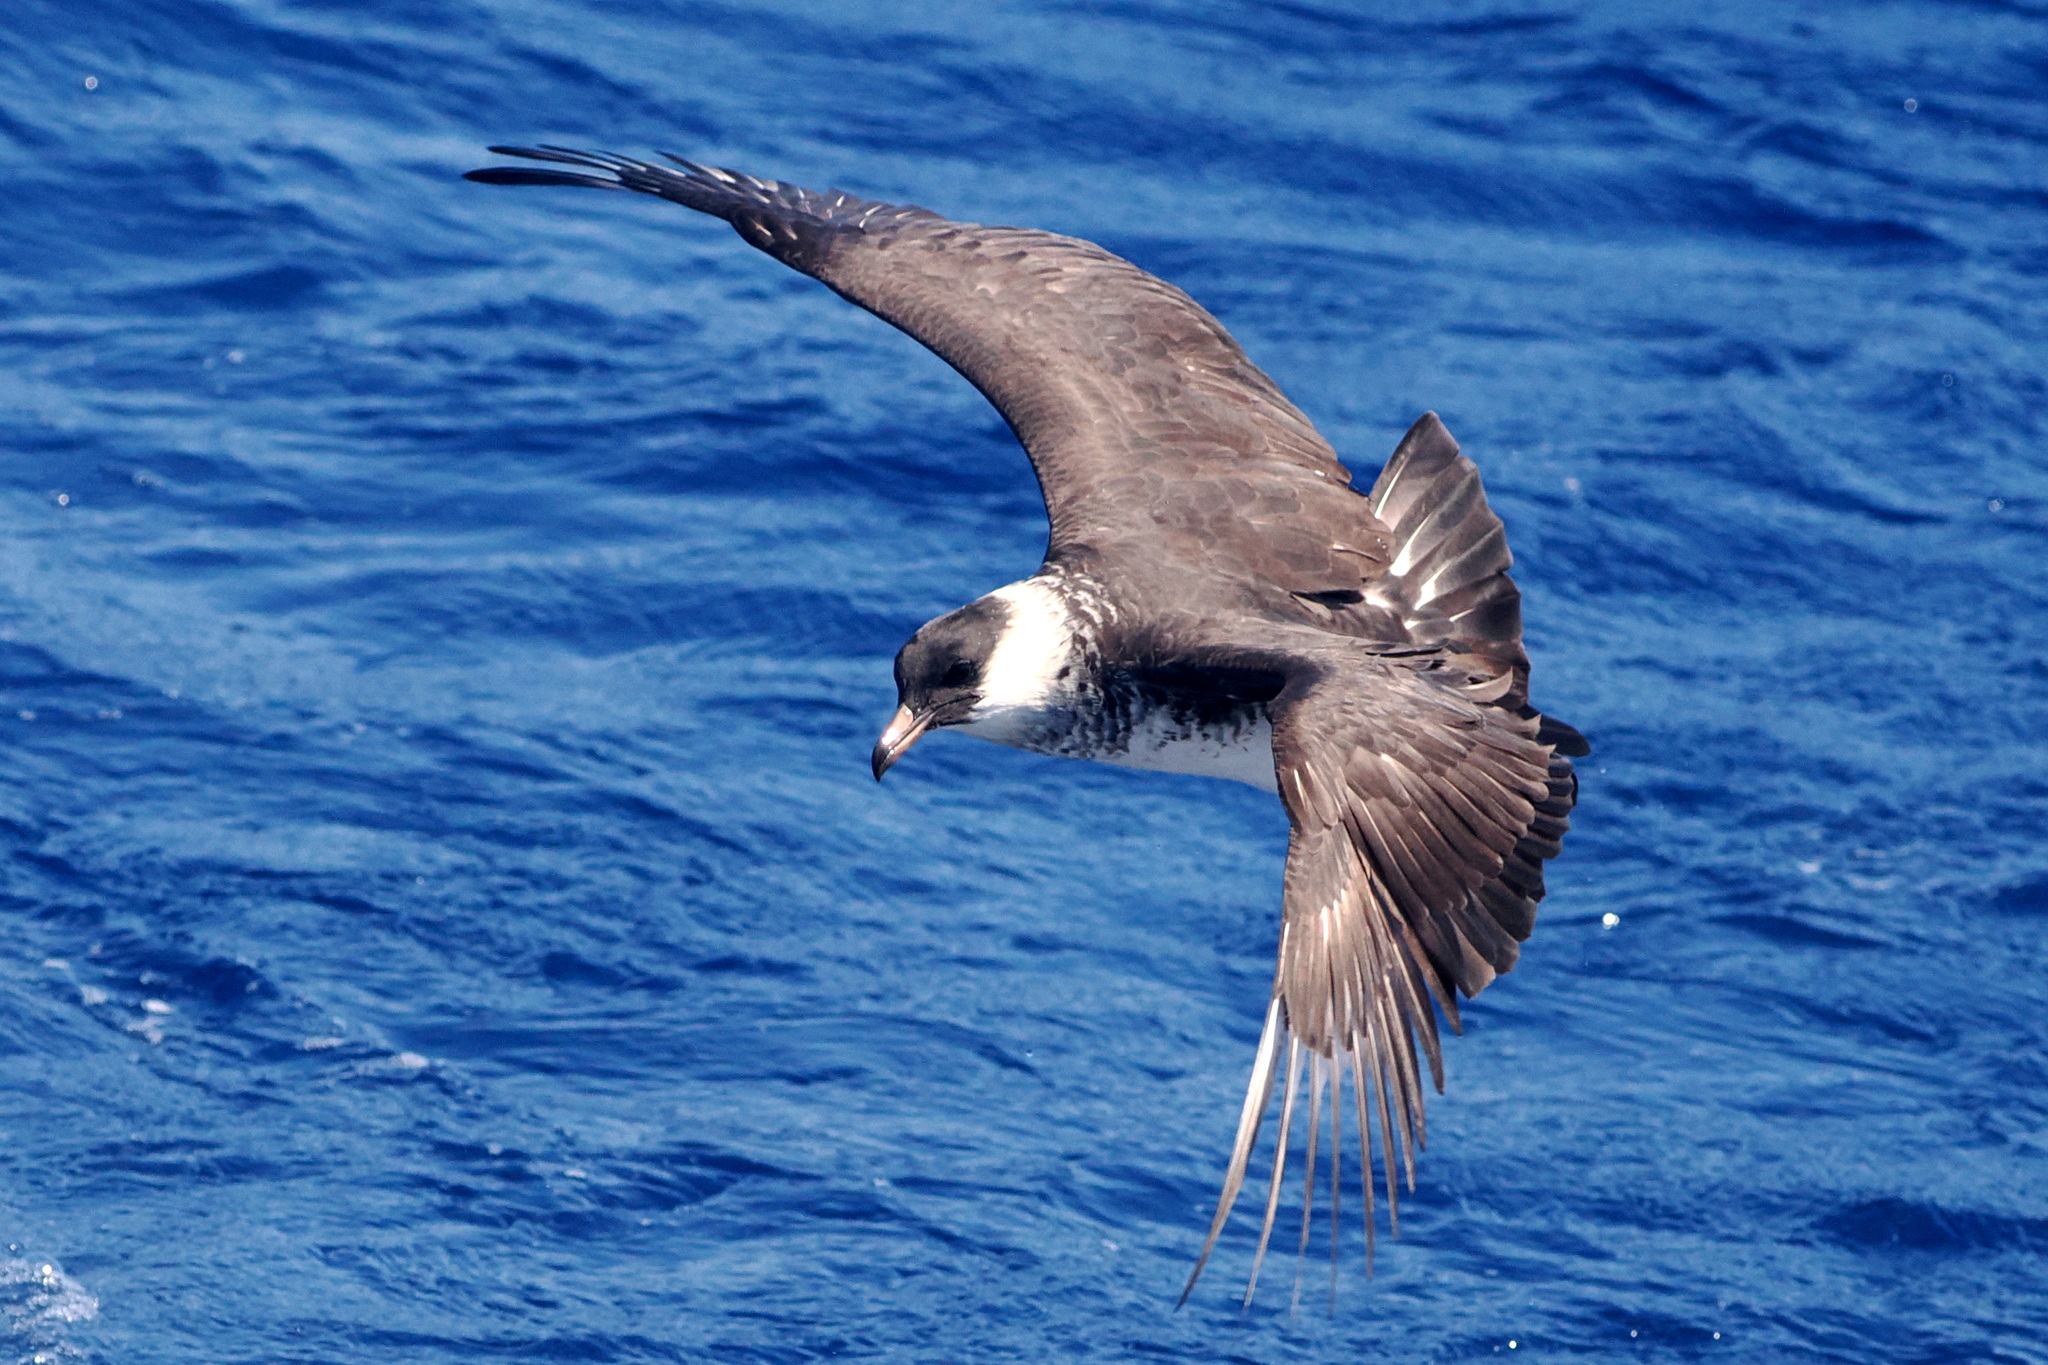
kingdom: Animalia
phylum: Chordata
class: Aves
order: Charadriiformes
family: Stercorariidae
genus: Stercorarius
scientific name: Stercorarius pomarinus
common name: Pomarine jaeger
